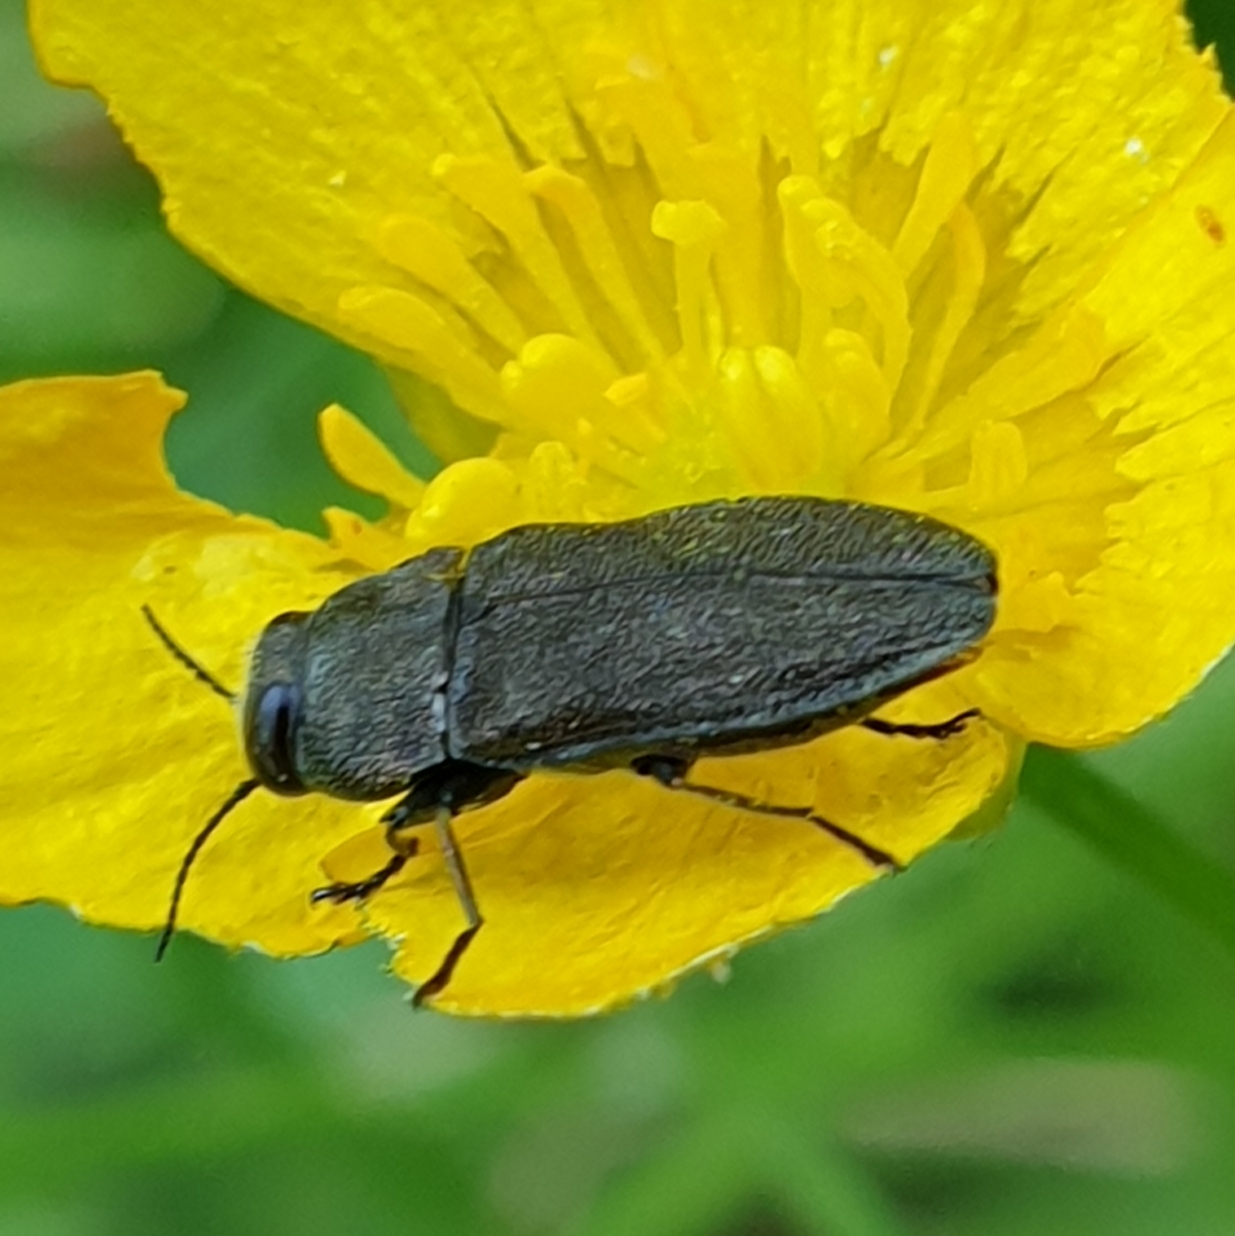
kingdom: Animalia
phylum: Arthropoda
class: Insecta
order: Coleoptera
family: Buprestidae
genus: Anthaxia
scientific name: Anthaxia morio
